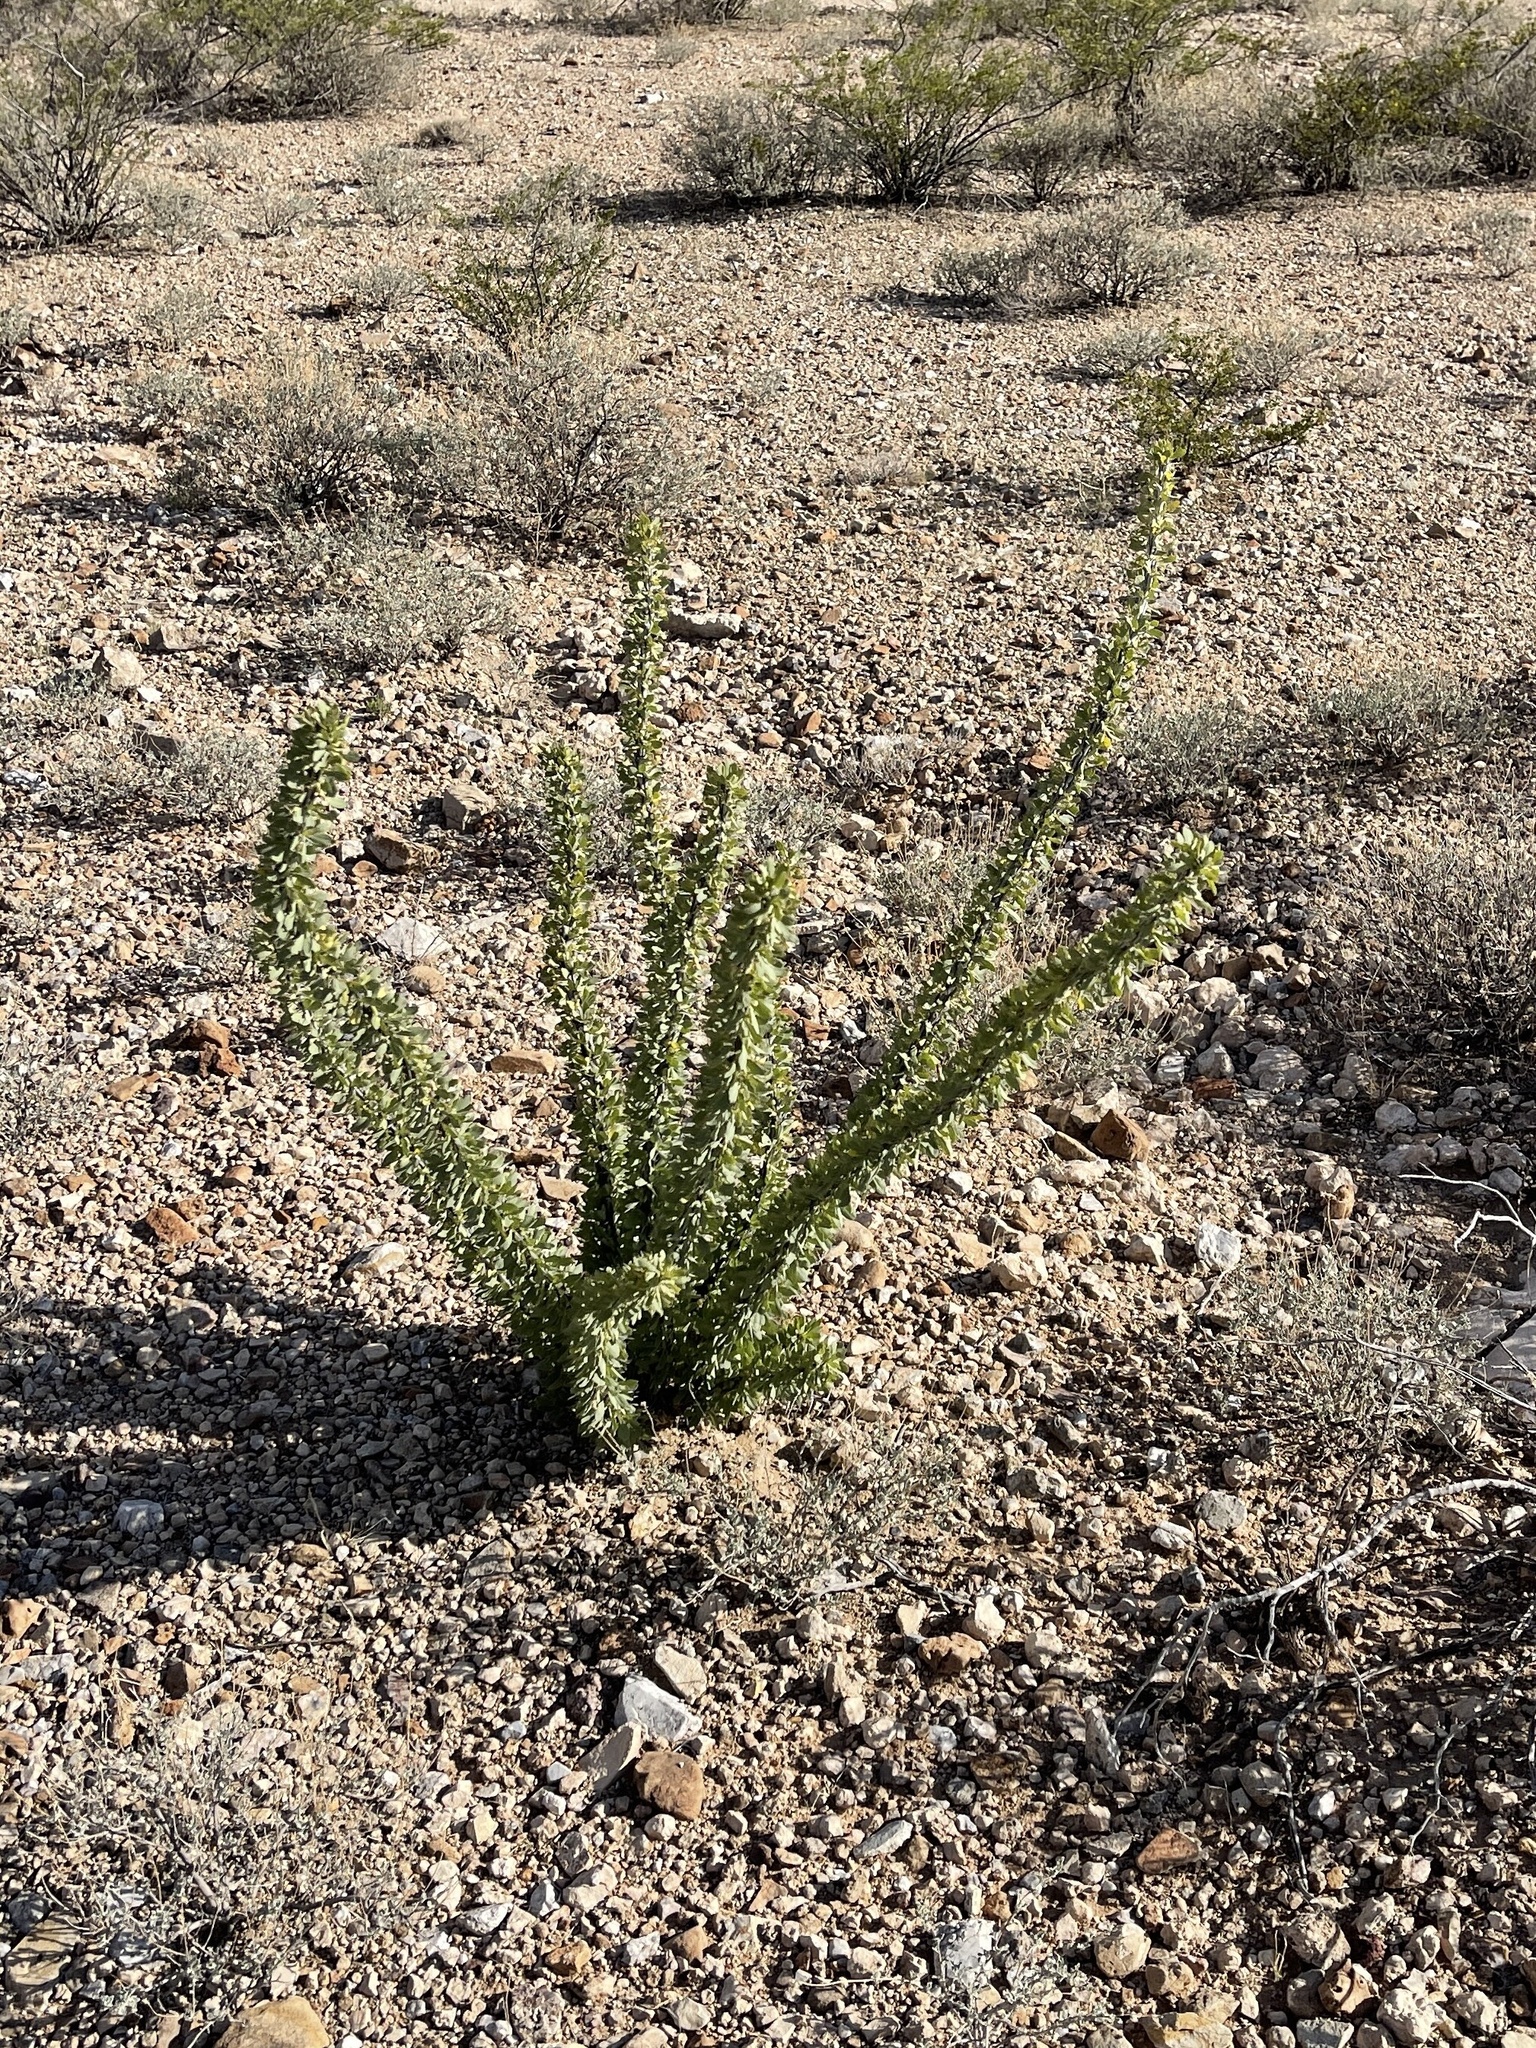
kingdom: Plantae
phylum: Tracheophyta
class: Magnoliopsida
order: Ericales
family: Fouquieriaceae
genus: Fouquieria
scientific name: Fouquieria splendens
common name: Vine-cactus
